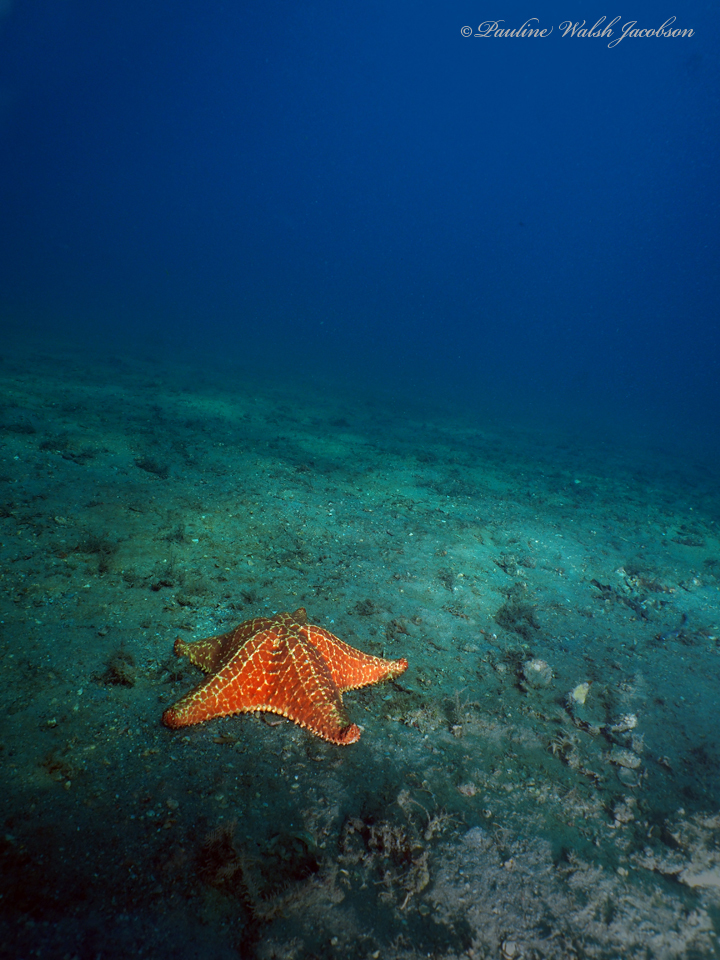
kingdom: Animalia
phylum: Echinodermata
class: Asteroidea
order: Valvatida
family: Oreasteridae
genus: Oreaster
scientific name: Oreaster reticulatus
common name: Cushion sea star
